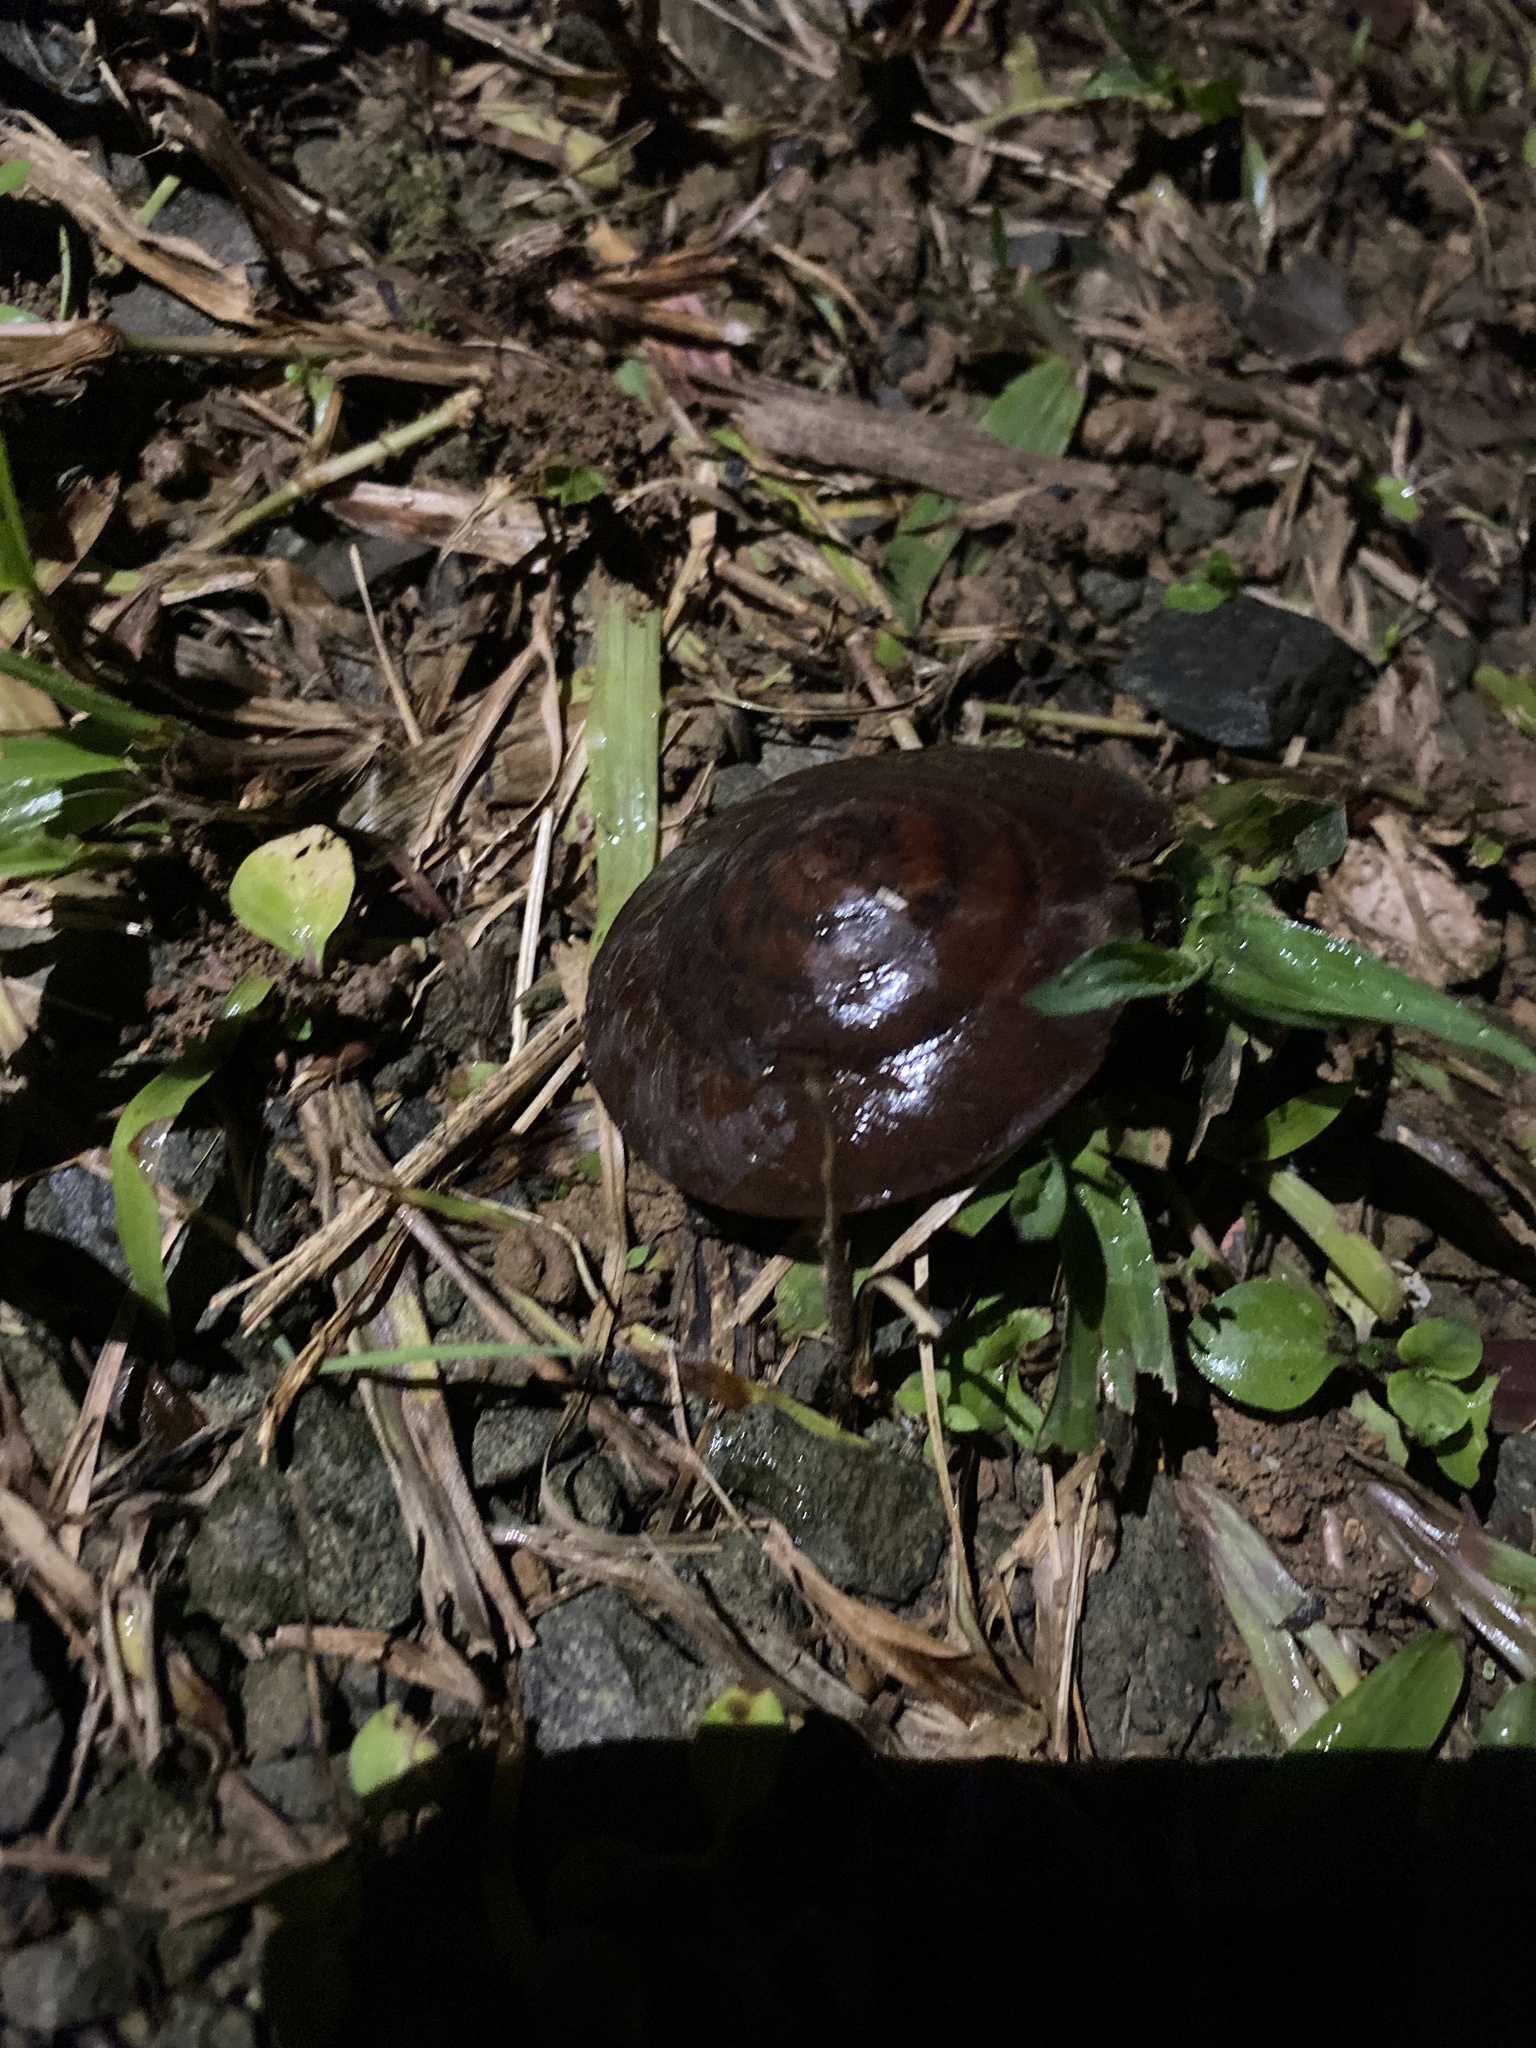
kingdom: Animalia
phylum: Mollusca
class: Gastropoda
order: Stylommatophora
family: Solaropsidae
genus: Caracolus
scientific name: Caracolus carocolla
